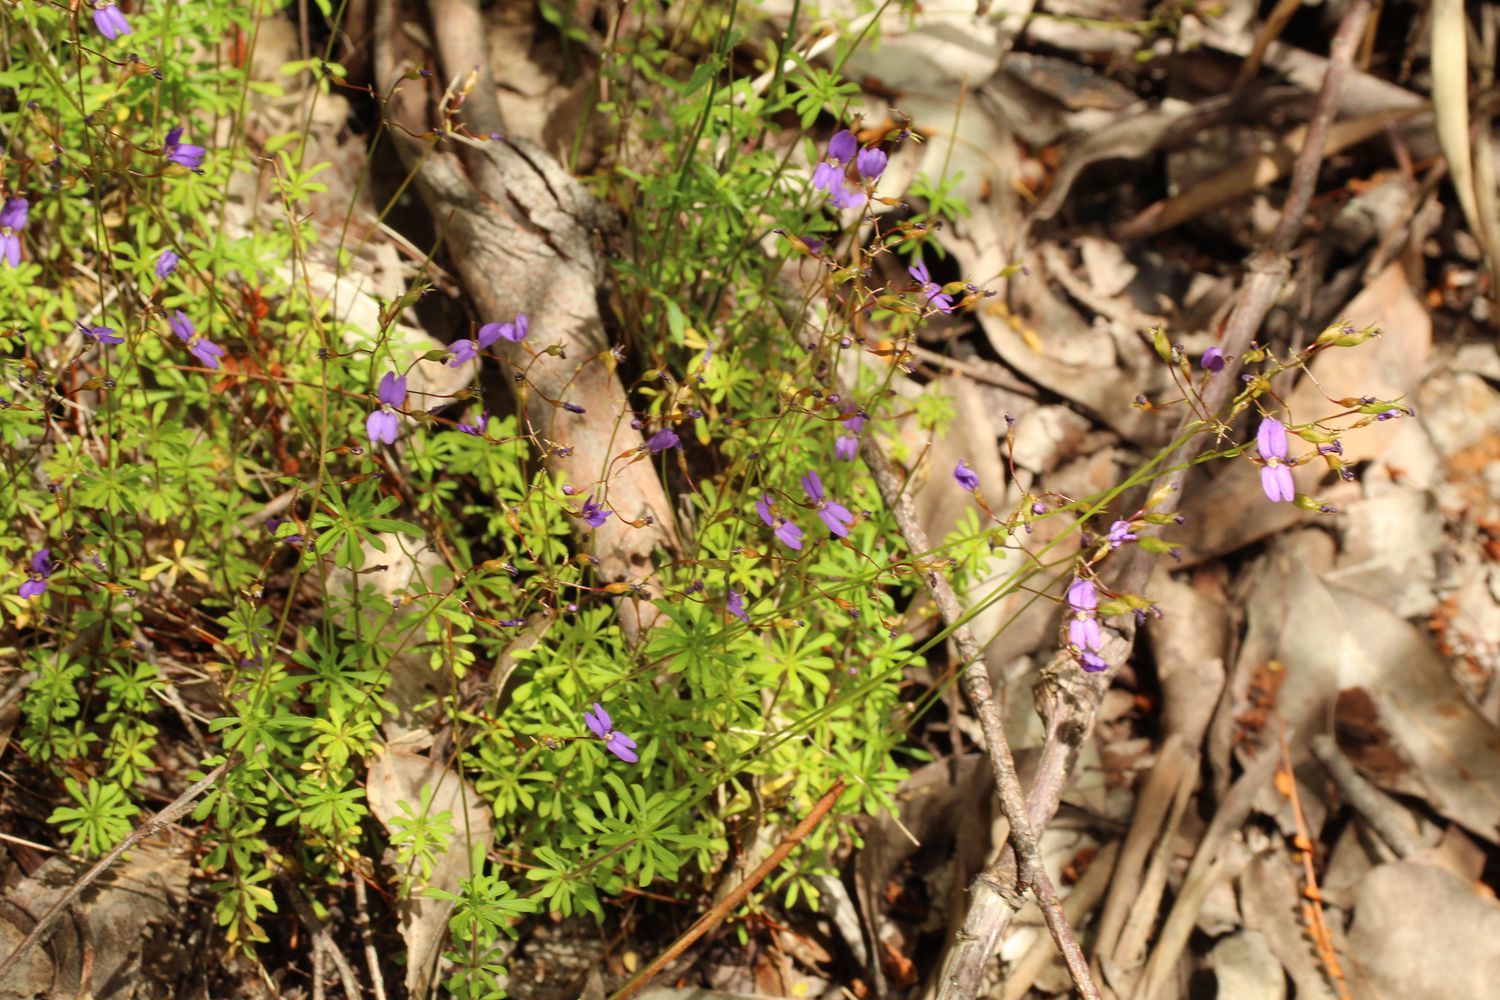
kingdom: Plantae
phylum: Tracheophyta
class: Magnoliopsida
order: Asterales
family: Stylidiaceae
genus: Stylidium
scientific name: Stylidium pritzelianum
